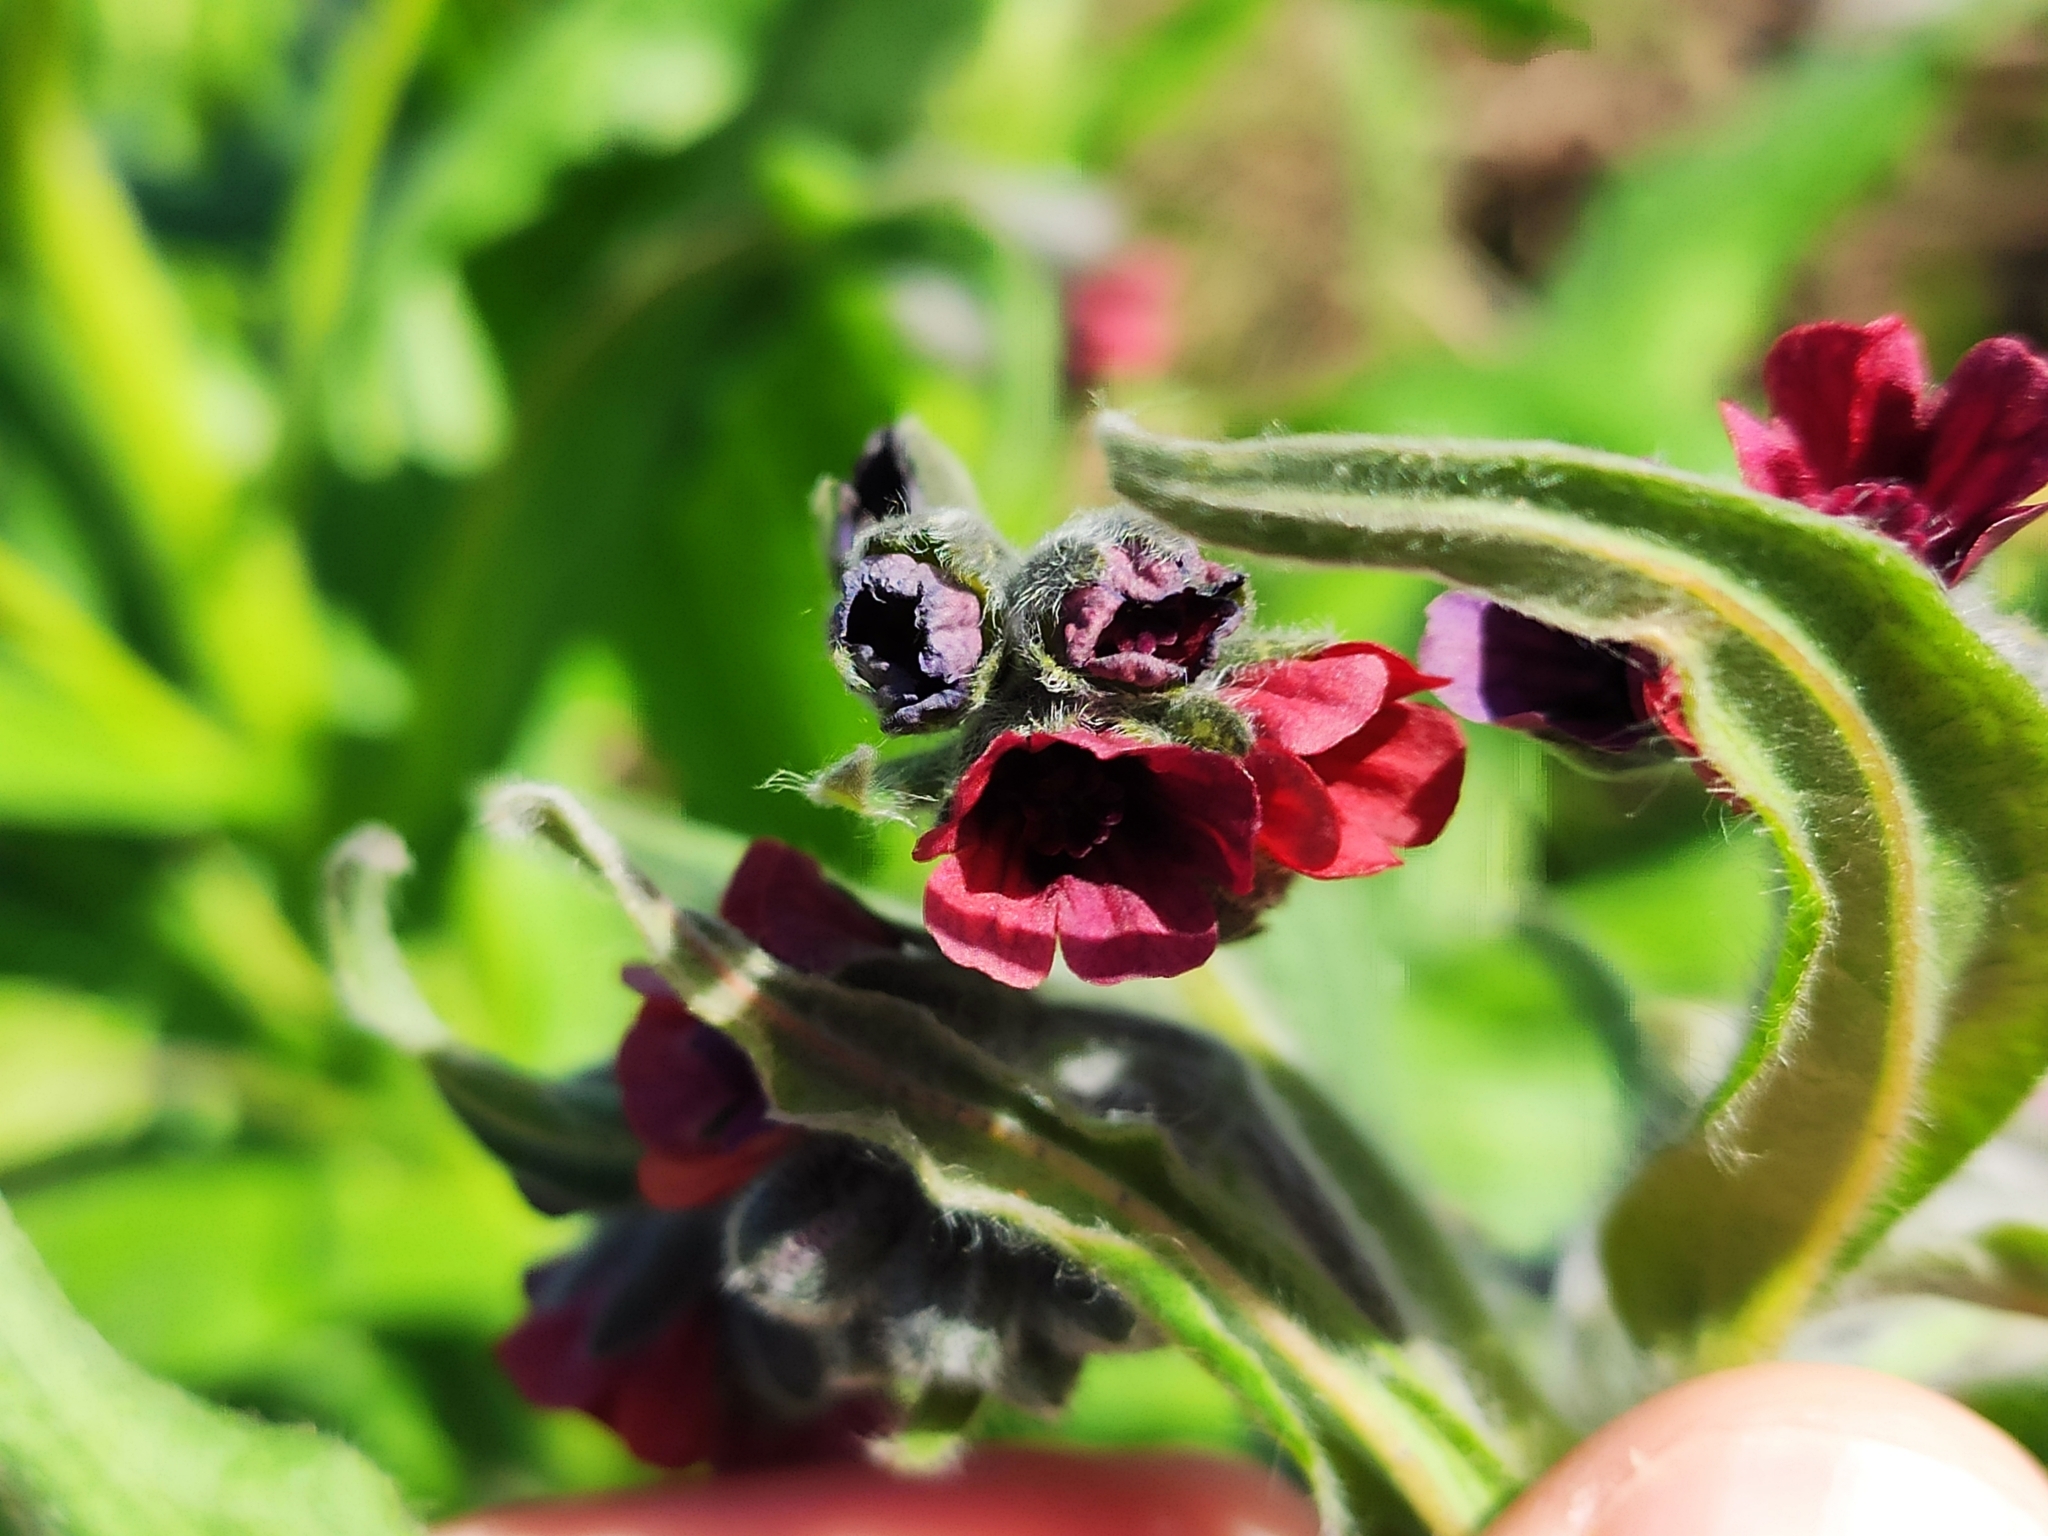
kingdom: Plantae
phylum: Tracheophyta
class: Magnoliopsida
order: Boraginales
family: Boraginaceae
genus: Cynoglossum
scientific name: Cynoglossum officinale
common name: Hound's-tongue
